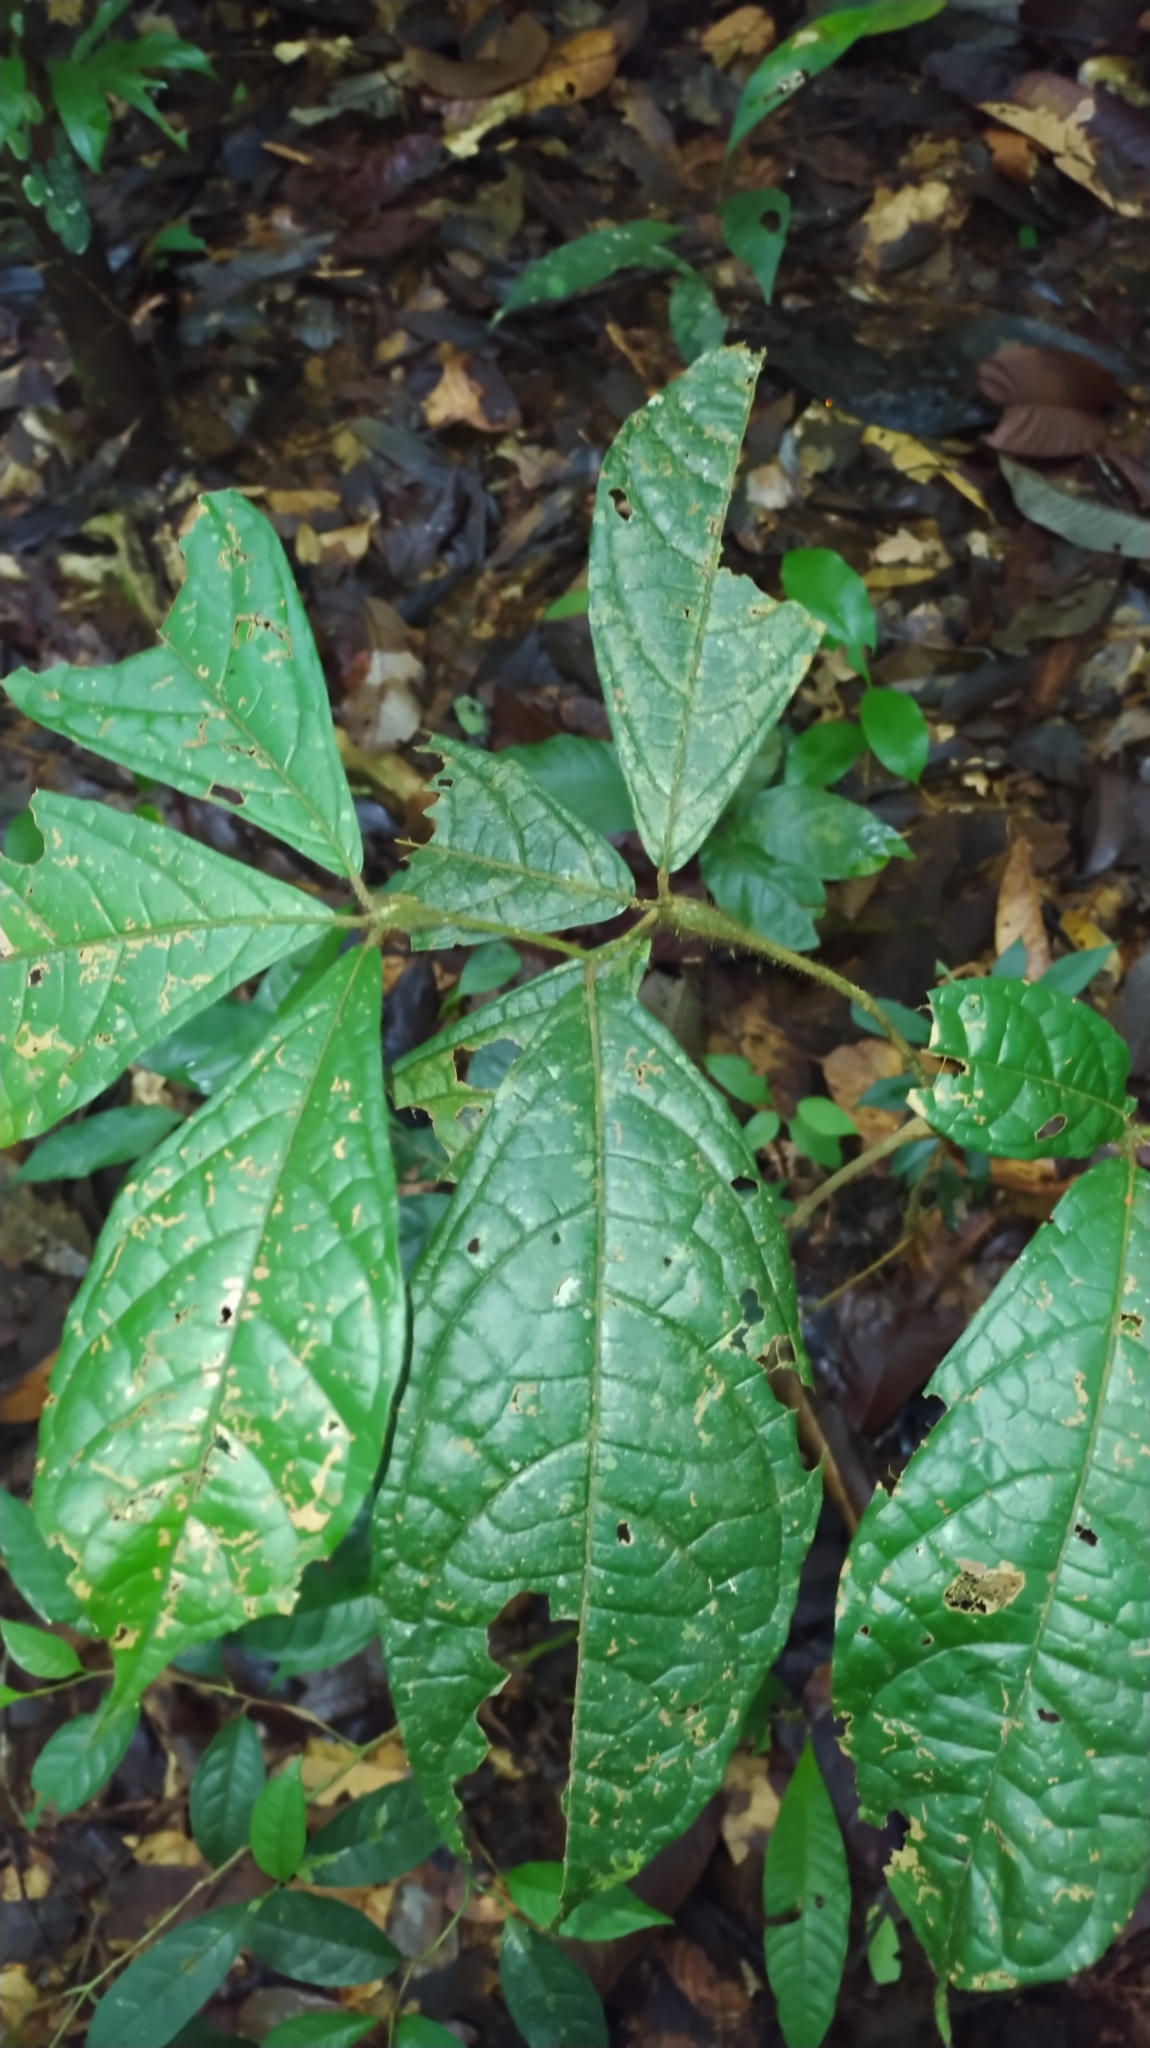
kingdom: Plantae
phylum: Tracheophyta
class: Magnoliopsida
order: Boraginales
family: Cordiaceae
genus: Cordia
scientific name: Cordia nodosa
